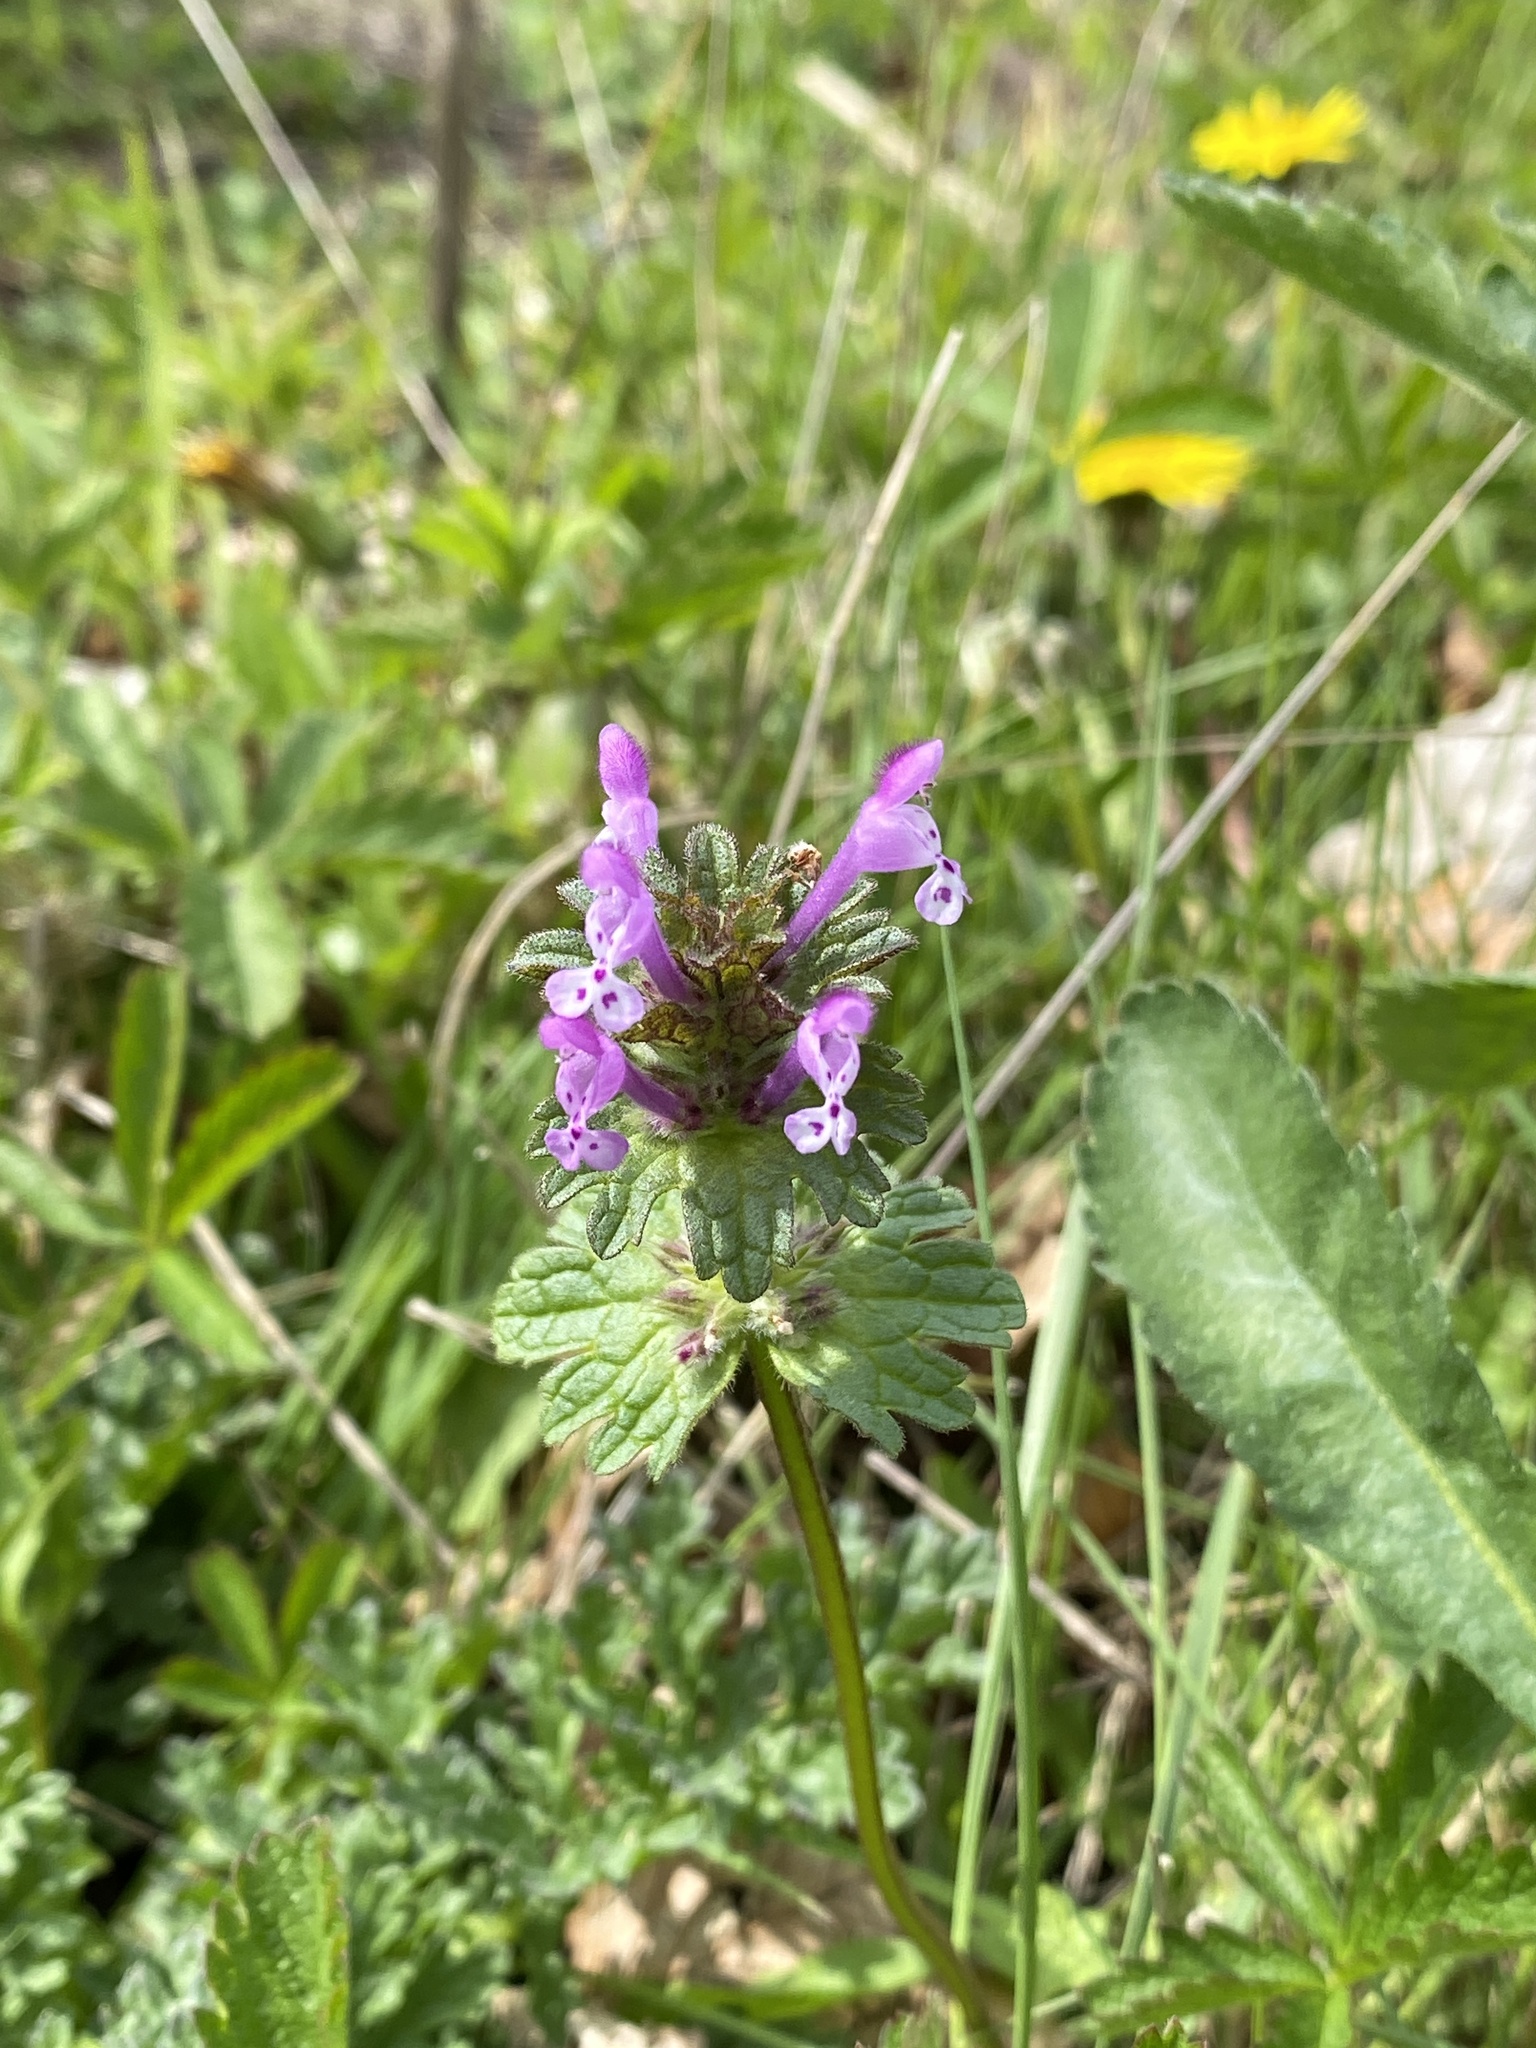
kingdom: Plantae
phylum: Tracheophyta
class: Magnoliopsida
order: Lamiales
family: Lamiaceae
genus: Lamium
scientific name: Lamium amplexicaule
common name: Henbit dead-nettle
